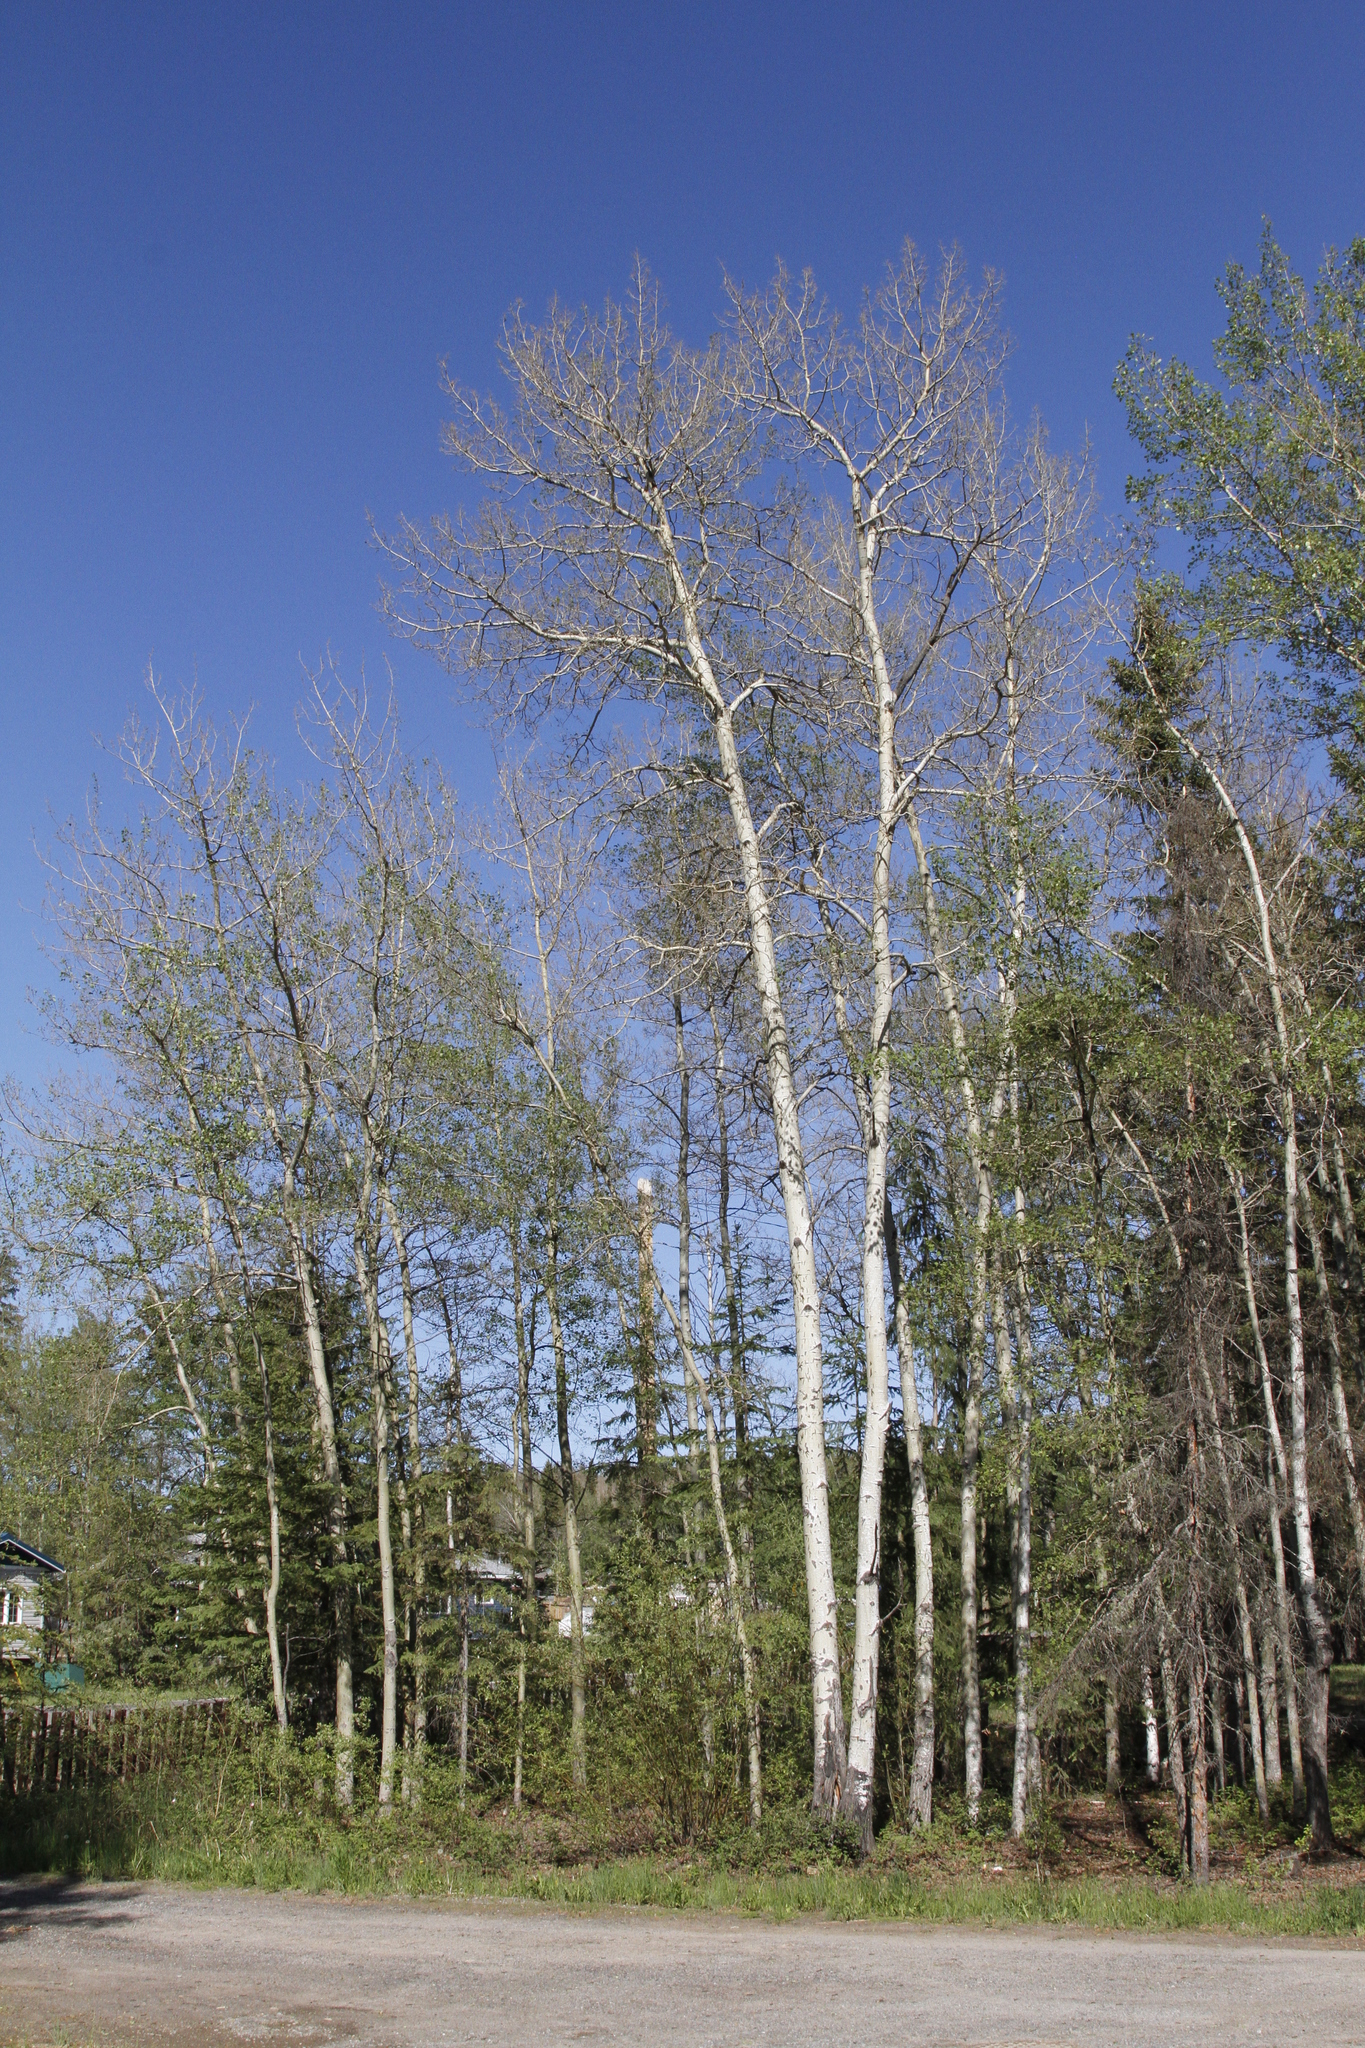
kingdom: Plantae
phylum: Tracheophyta
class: Magnoliopsida
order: Malpighiales
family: Salicaceae
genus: Populus
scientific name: Populus tremuloides
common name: Quaking aspen
